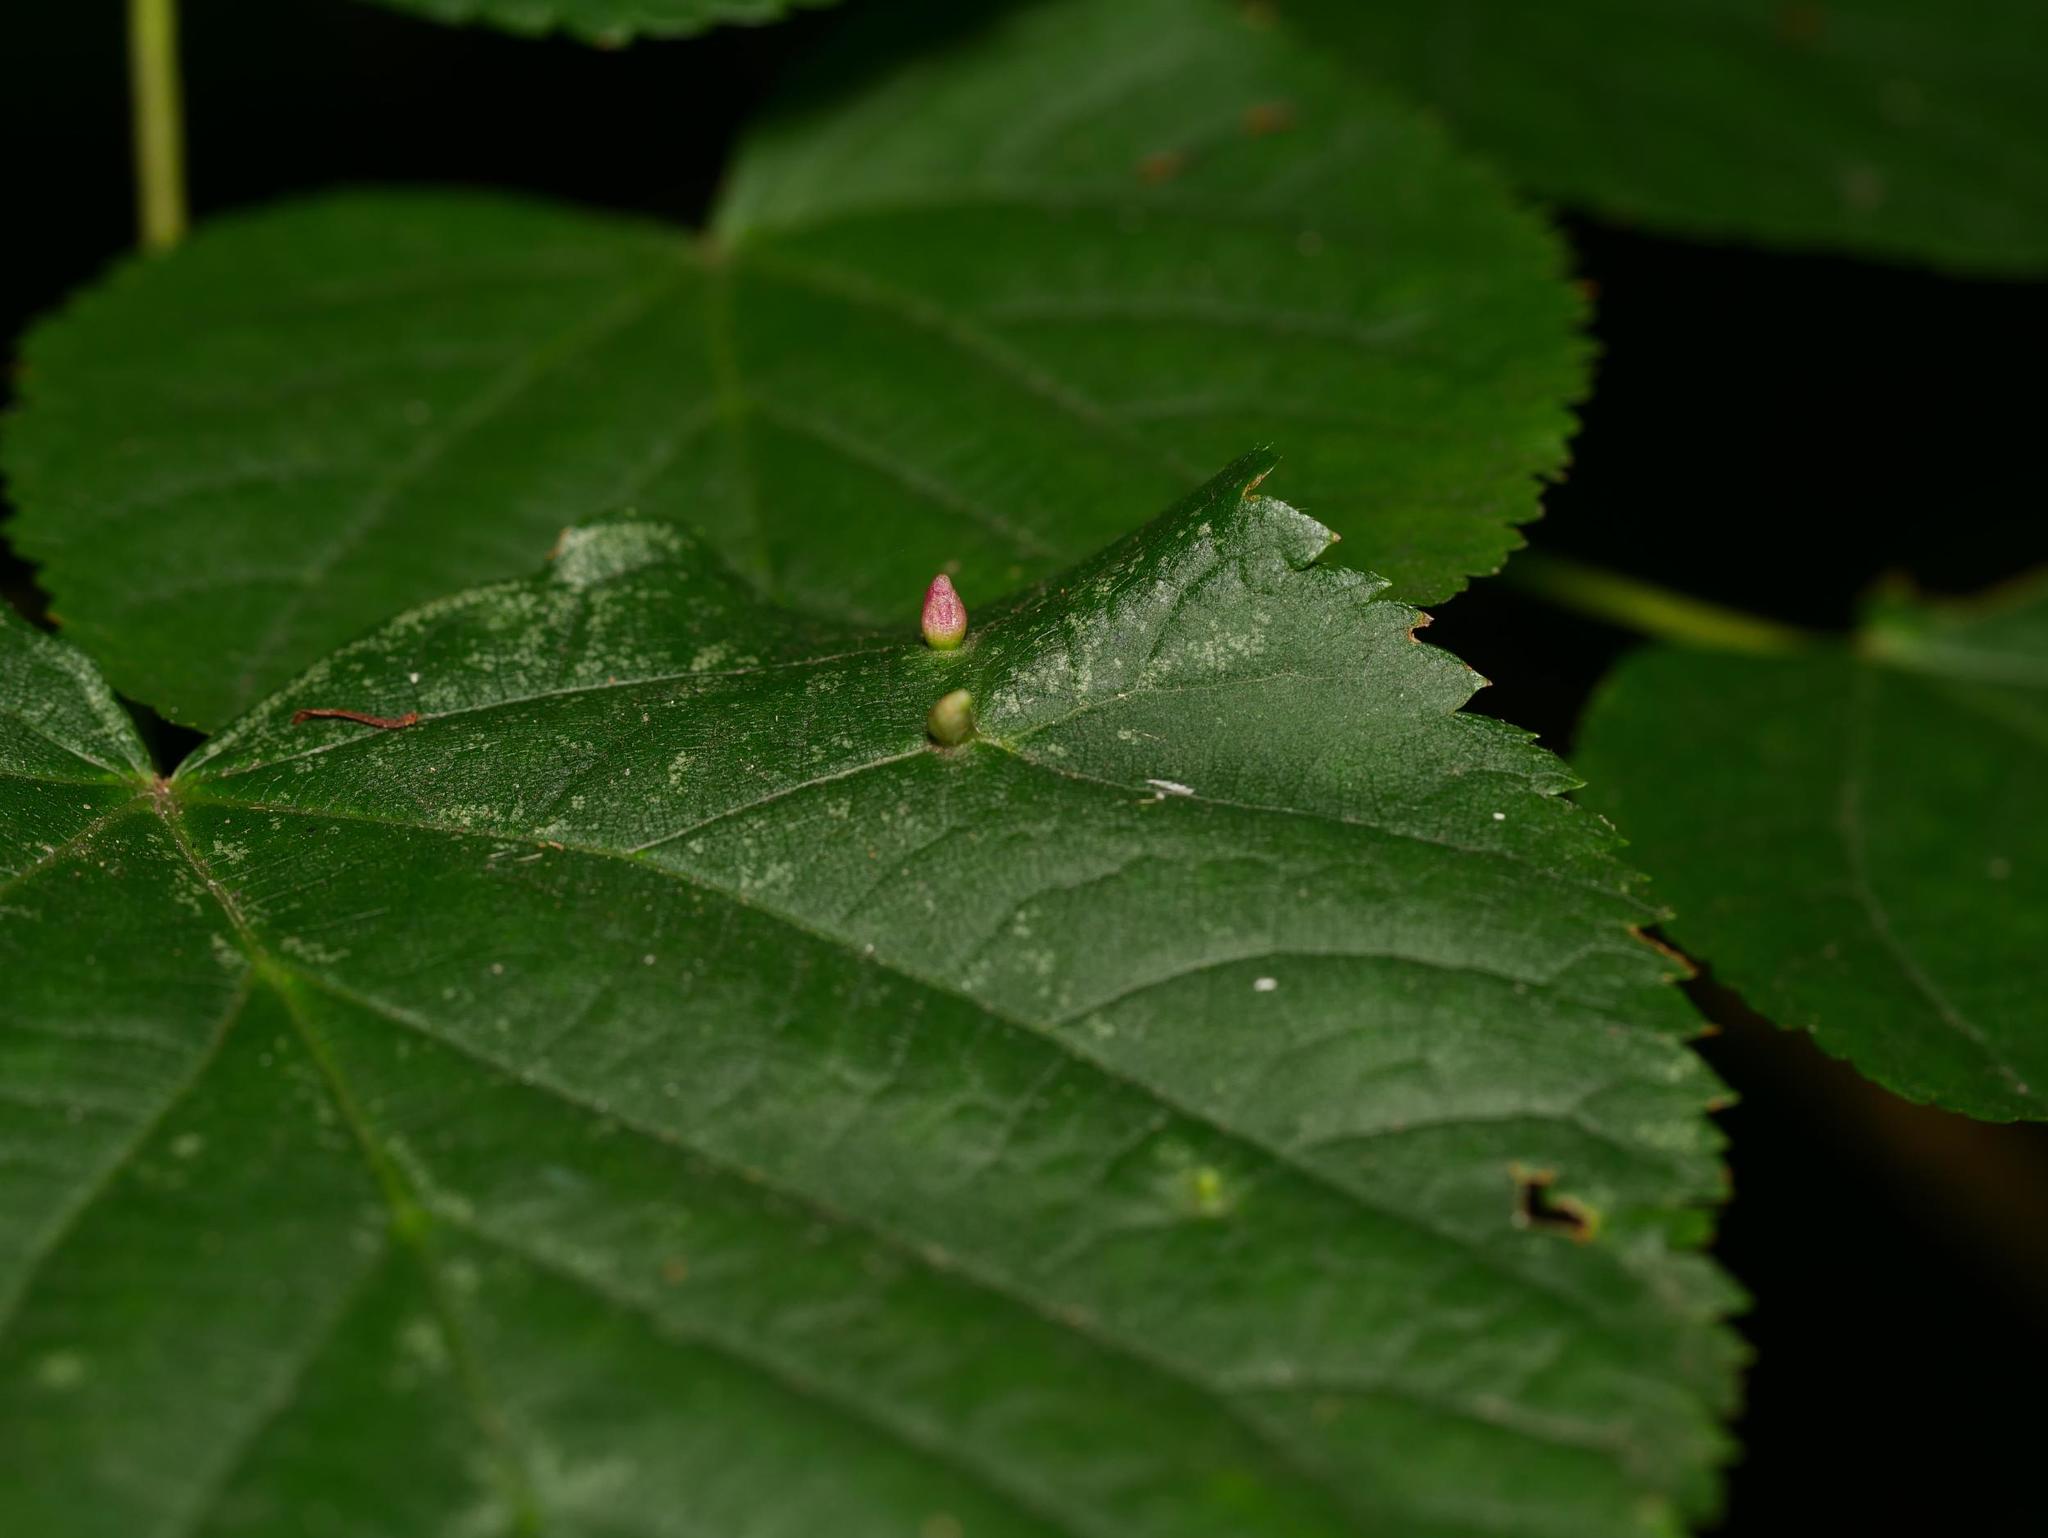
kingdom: Animalia
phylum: Arthropoda
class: Arachnida
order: Trombidiformes
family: Eriophyidae
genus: Eriophyes
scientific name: Eriophyes tiliae
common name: Red nail gall mite
